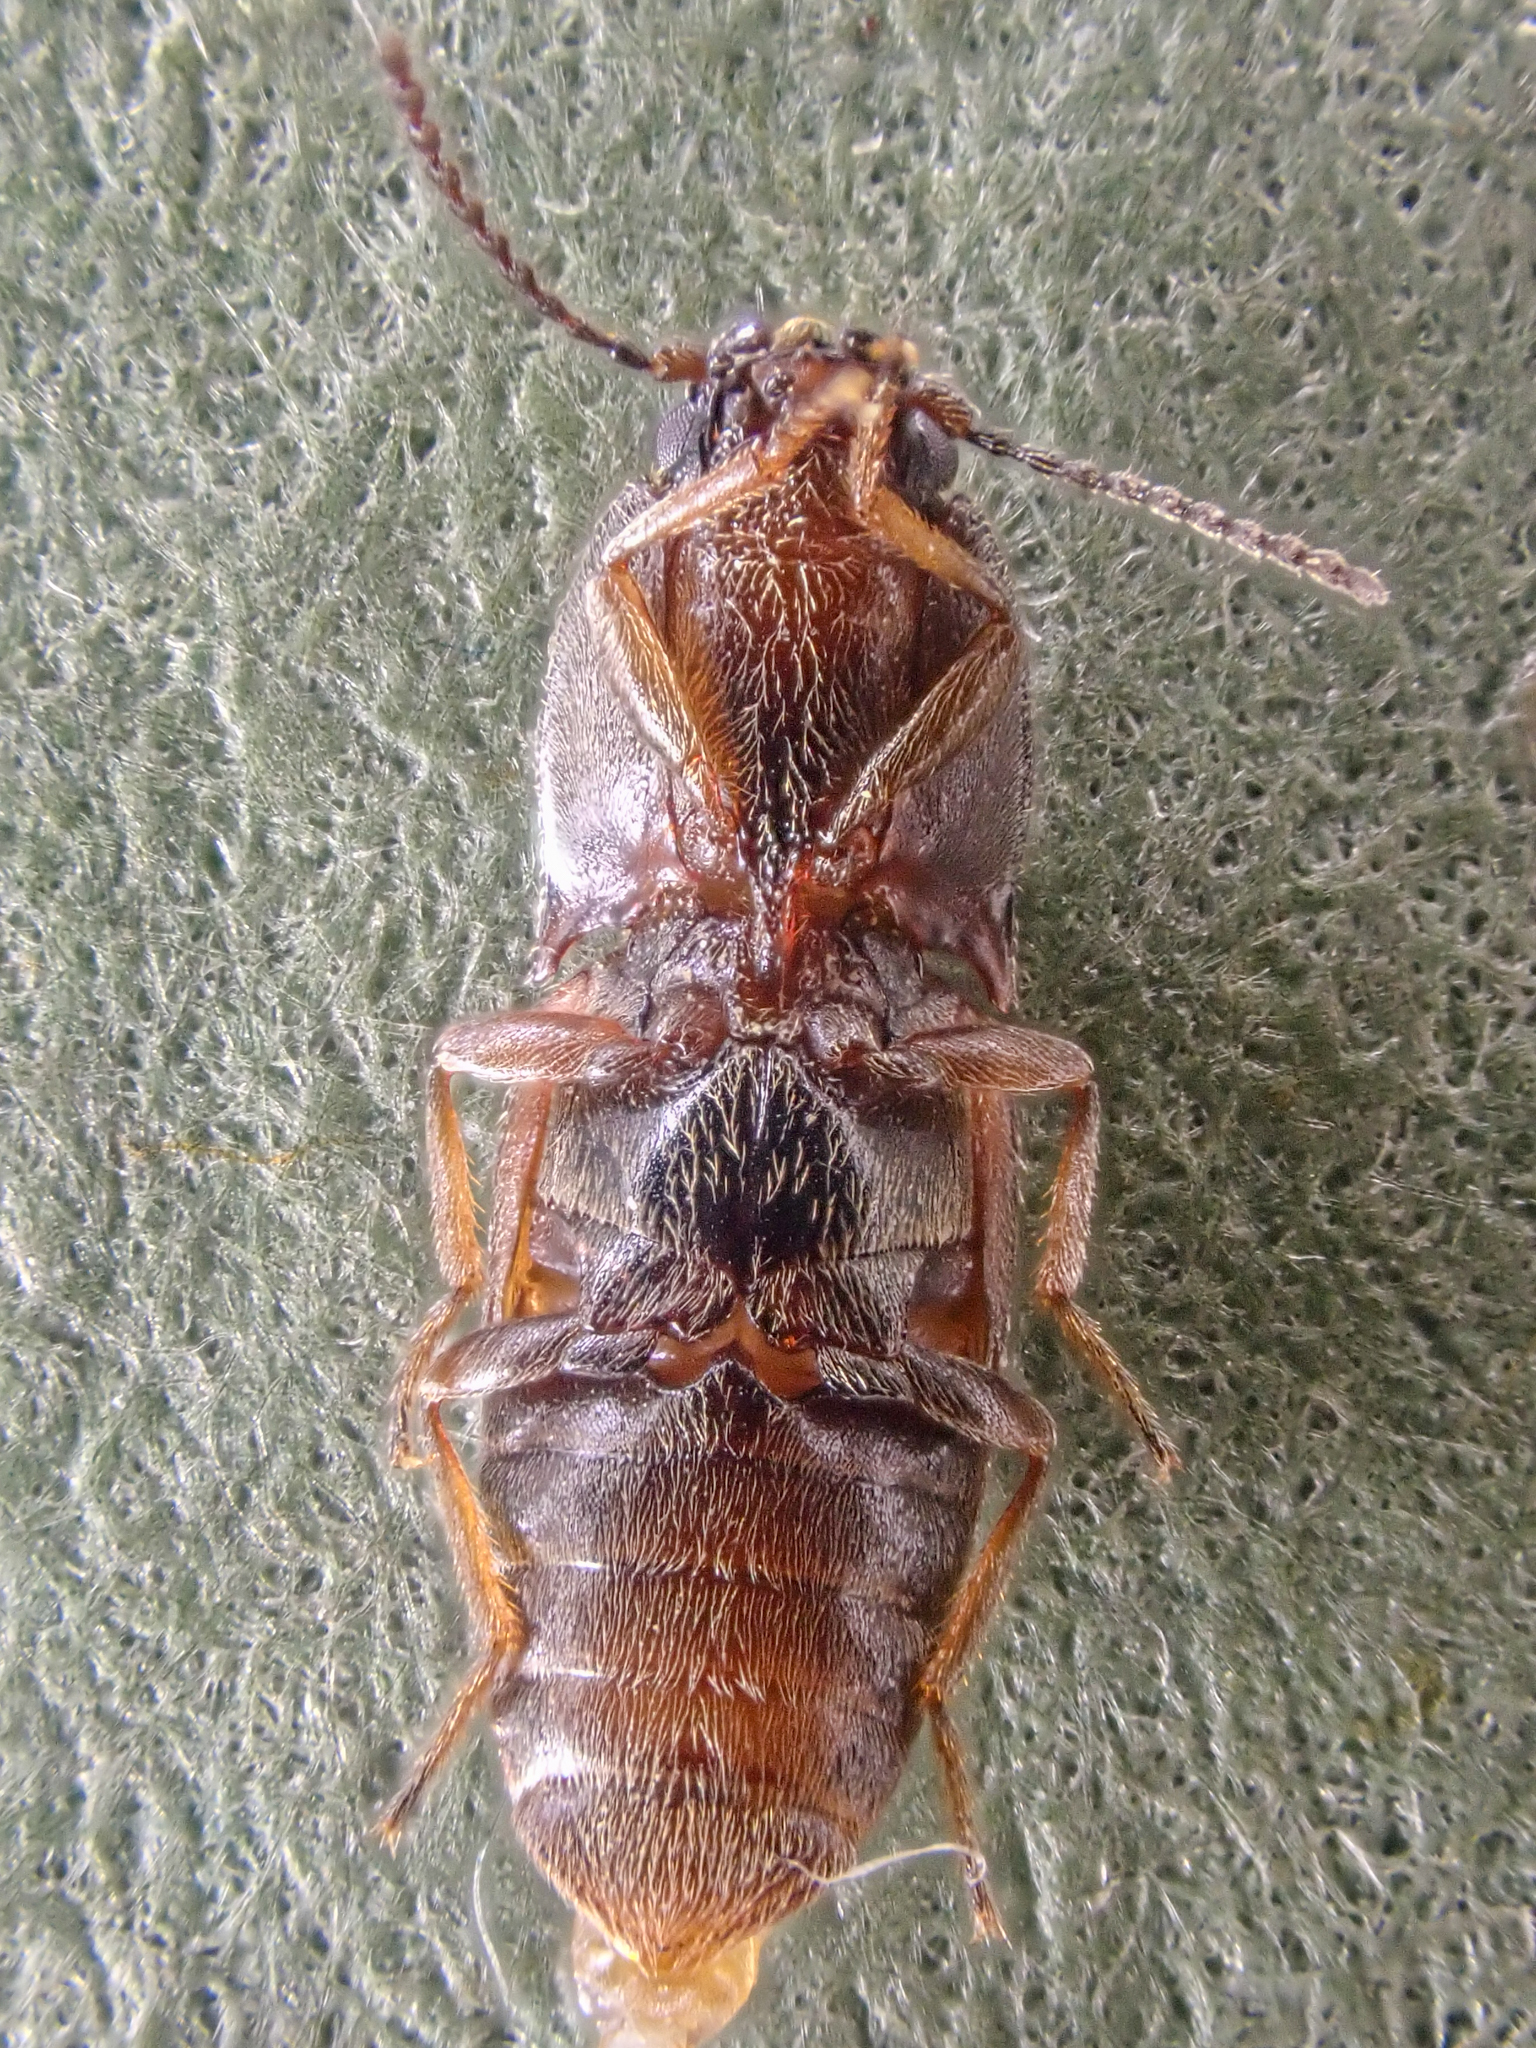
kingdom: Animalia
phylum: Arthropoda
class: Insecta
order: Coleoptera
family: Elateridae
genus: Hypnoidus
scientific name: Hypnoidus bicolor
